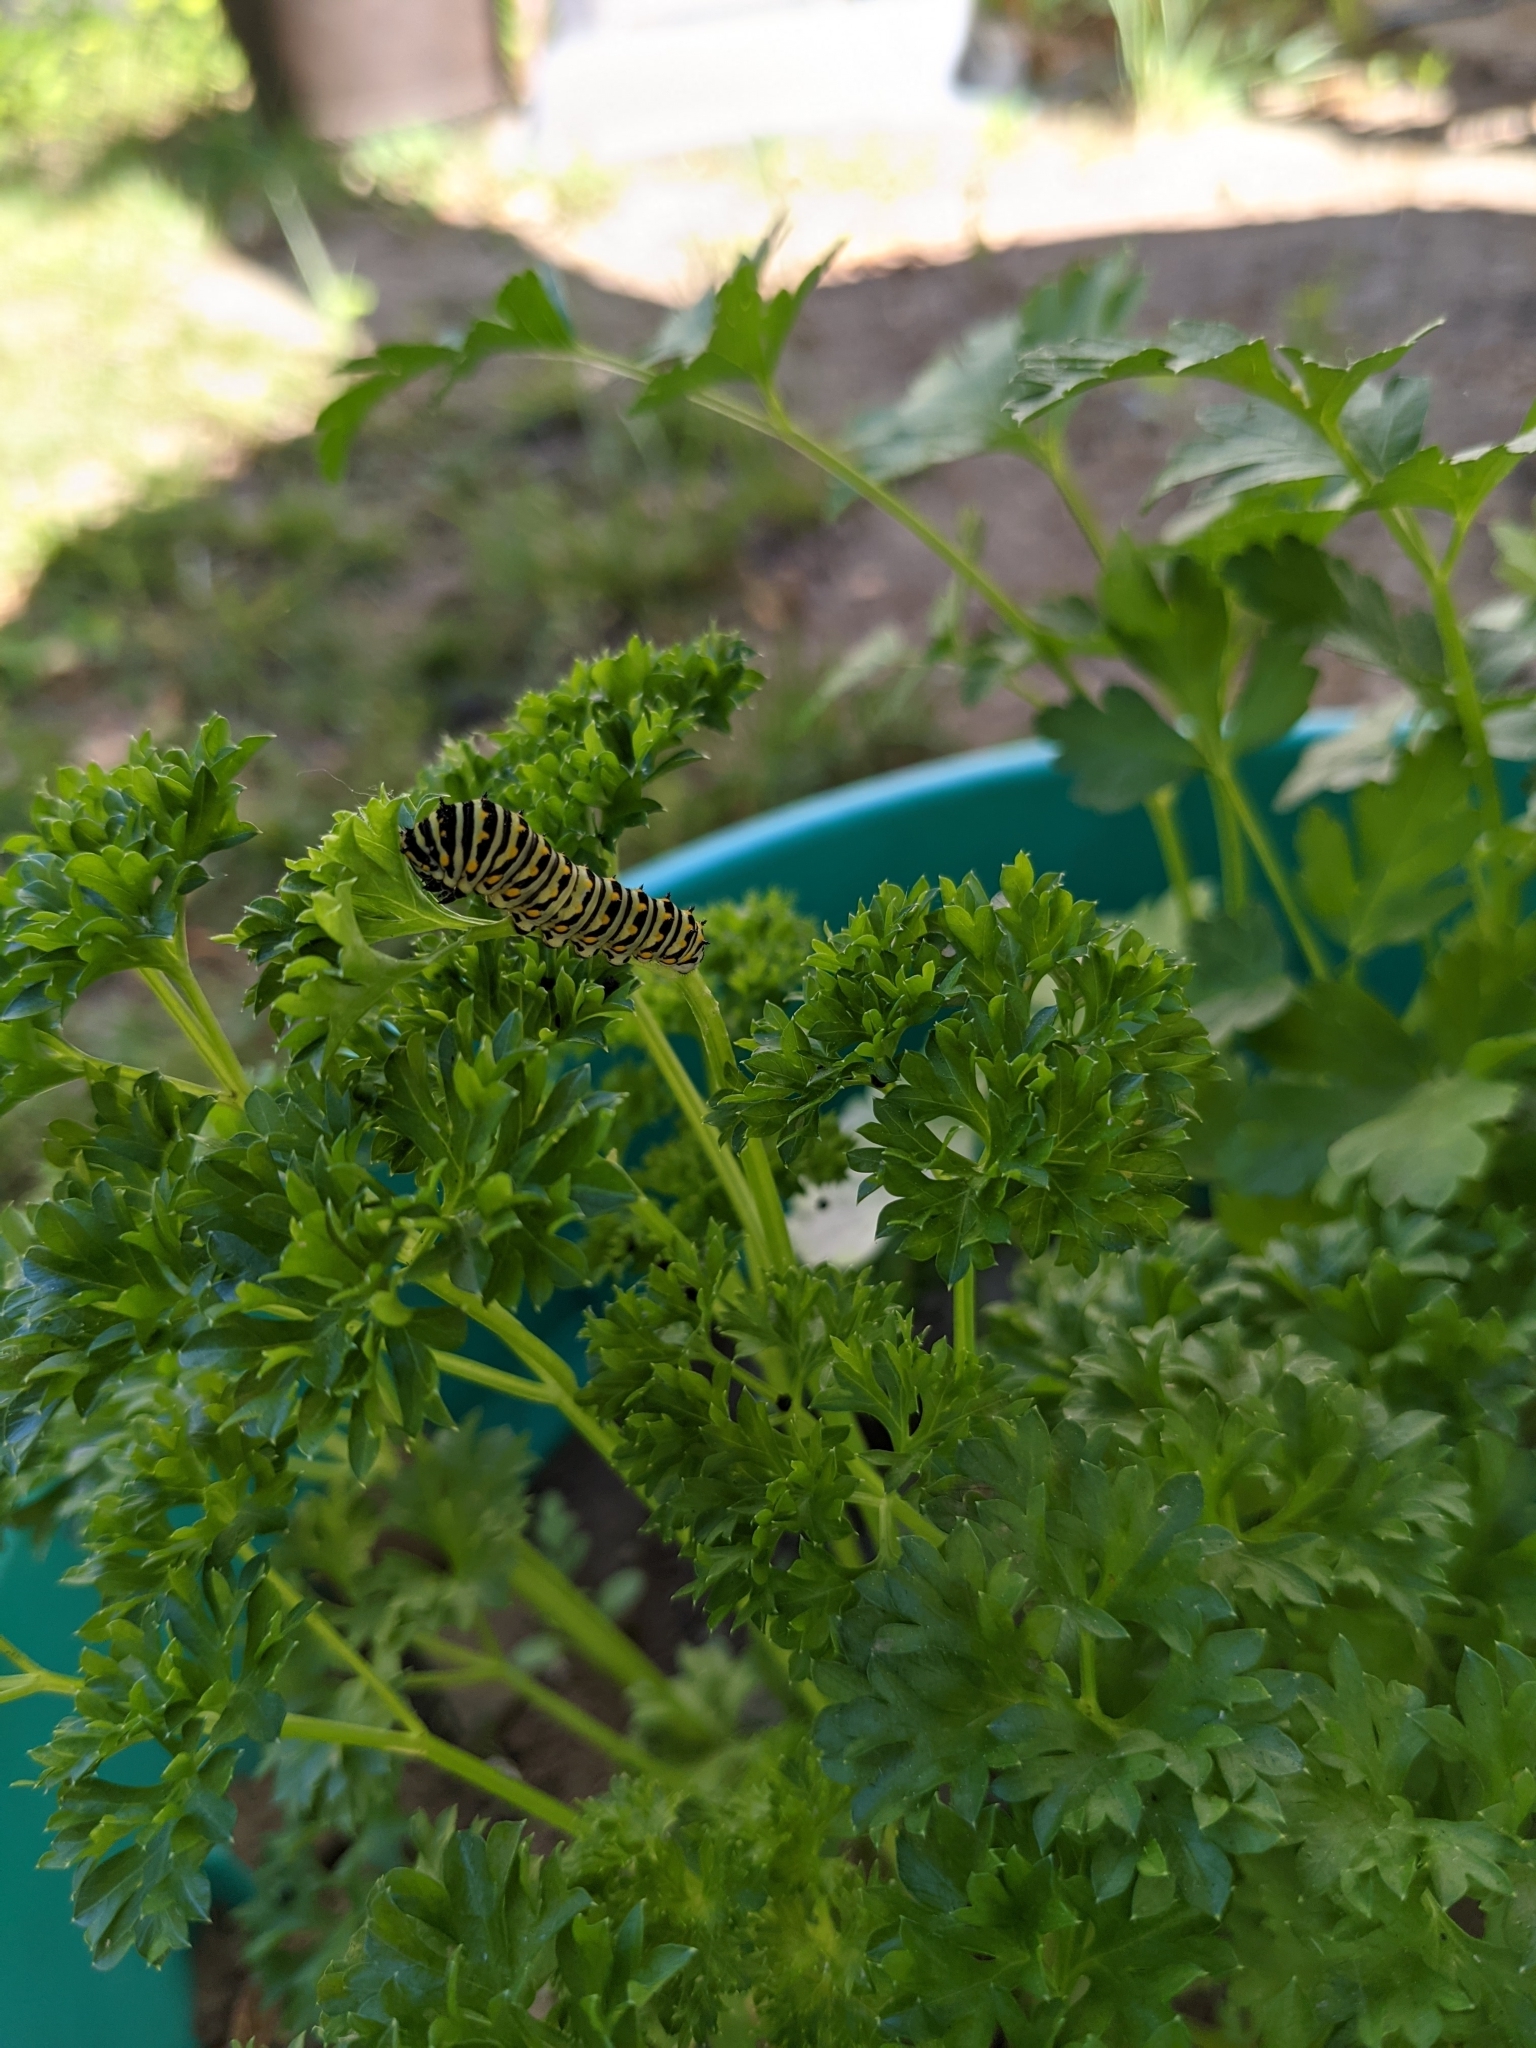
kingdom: Animalia
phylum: Arthropoda
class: Insecta
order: Lepidoptera
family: Papilionidae
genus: Papilio
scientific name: Papilio polyxenes
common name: Black swallowtail
